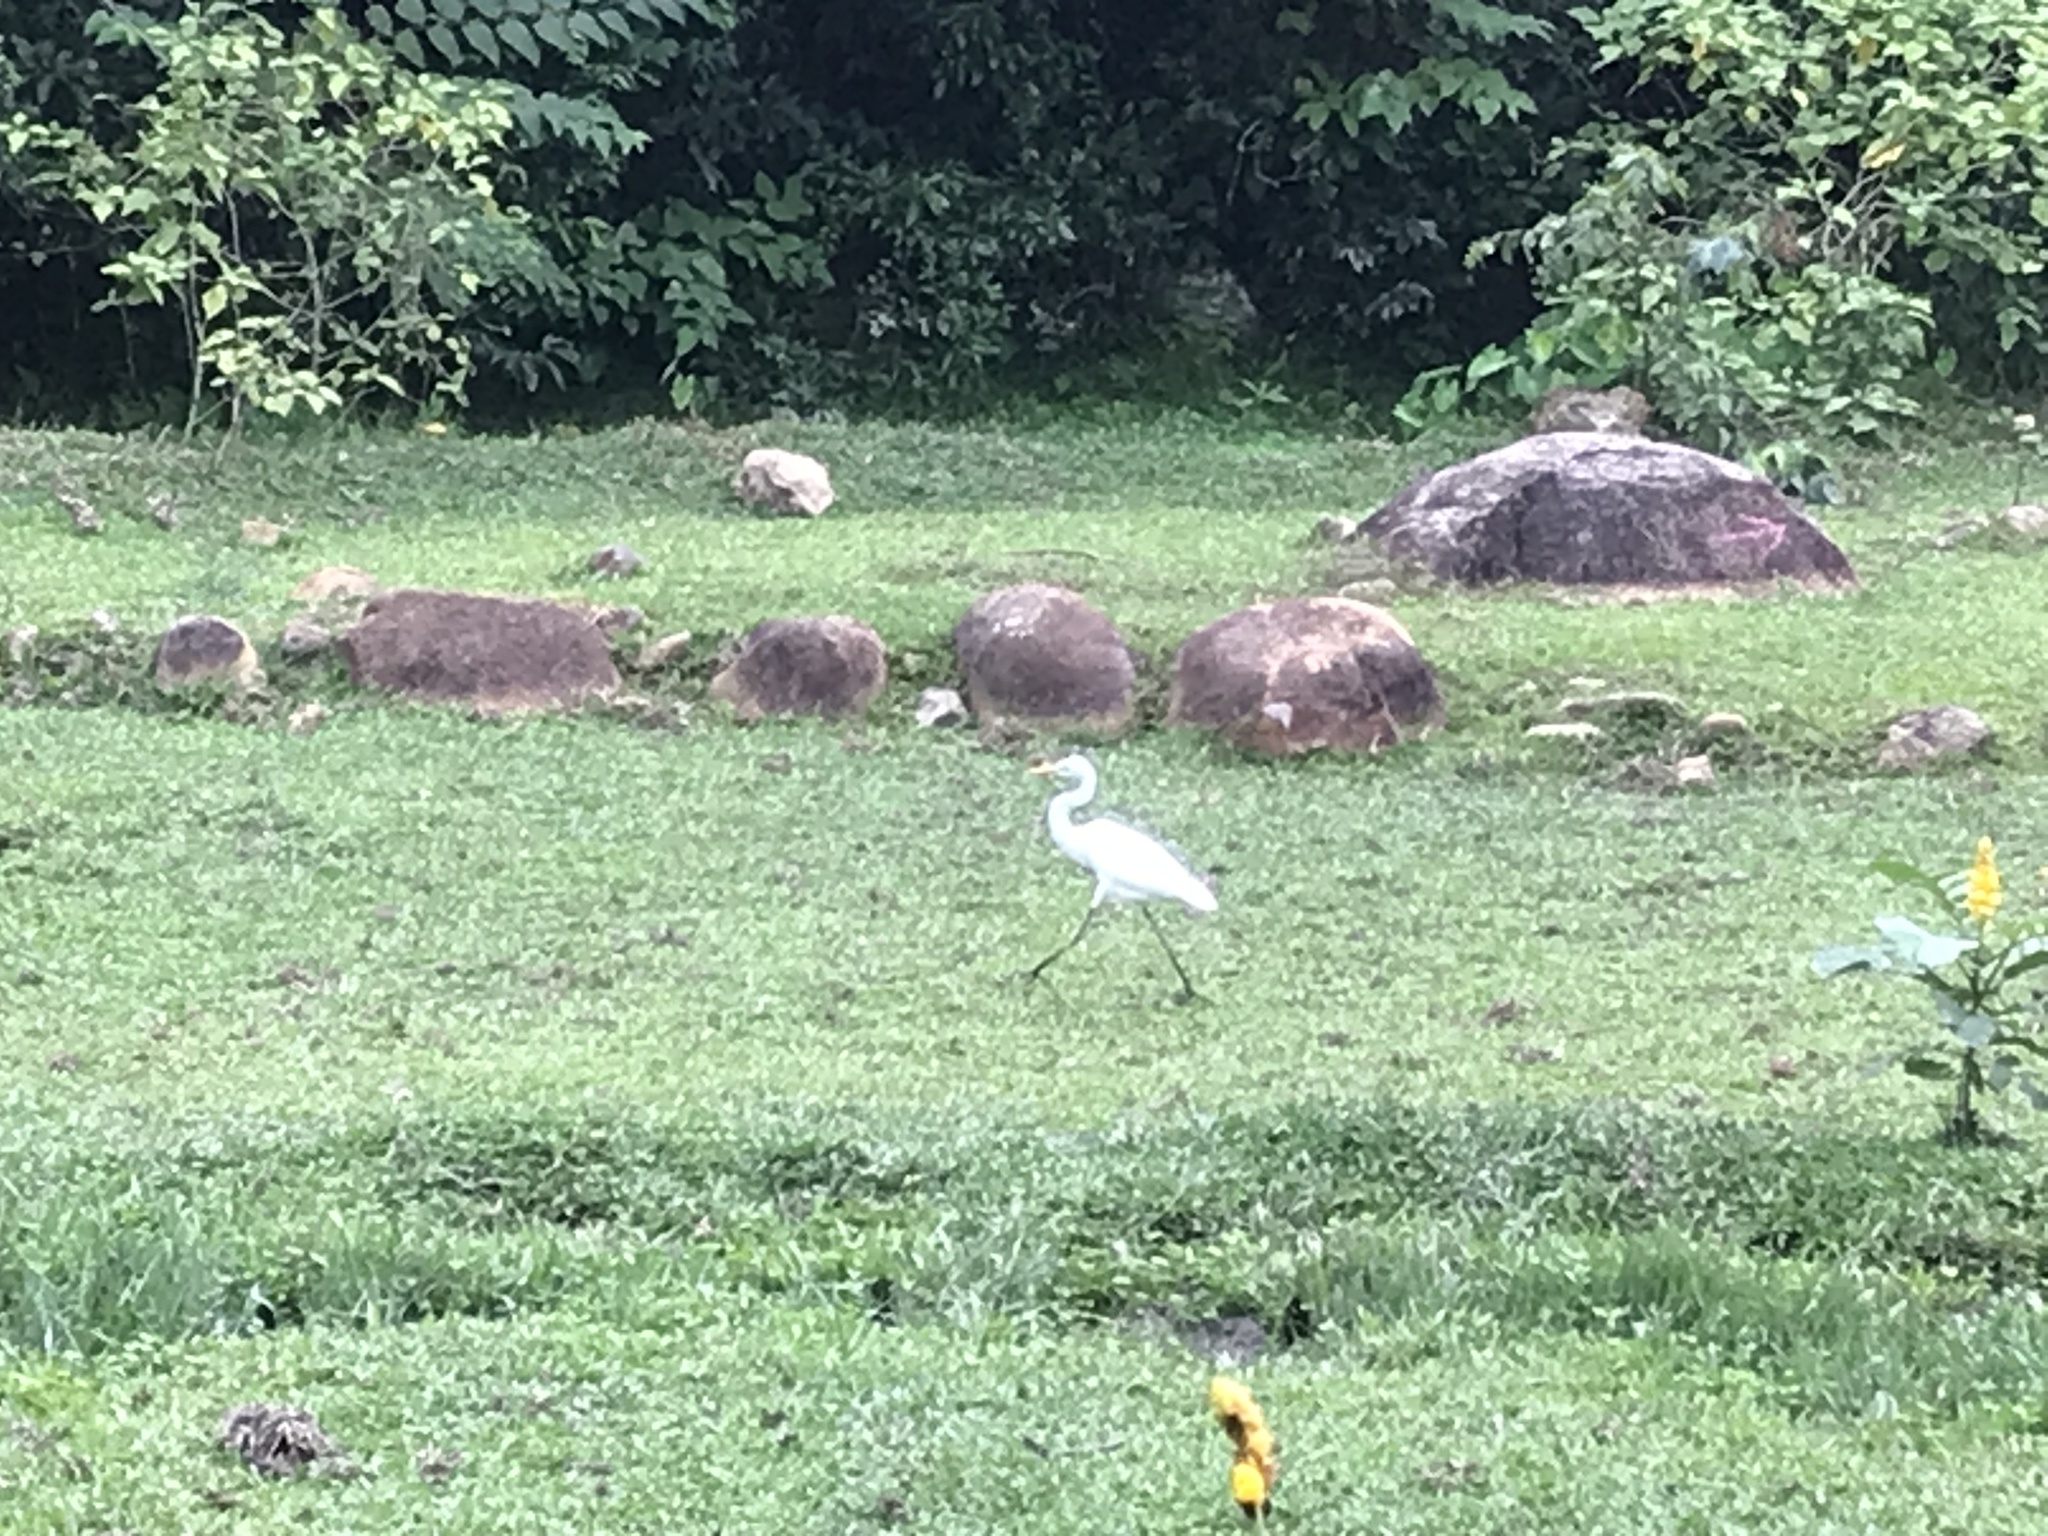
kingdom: Animalia
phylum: Chordata
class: Aves
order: Pelecaniformes
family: Ardeidae
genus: Egretta
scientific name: Egretta intermedia
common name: Intermediate egret
